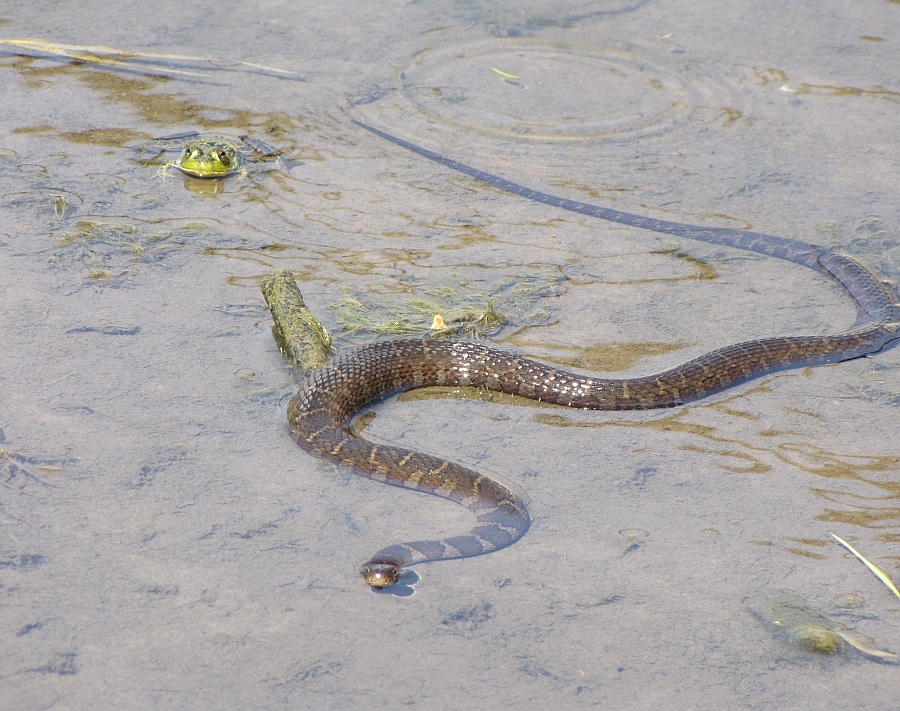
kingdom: Animalia
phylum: Chordata
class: Squamata
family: Colubridae
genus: Nerodia
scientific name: Nerodia sipedon
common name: Northern water snake
